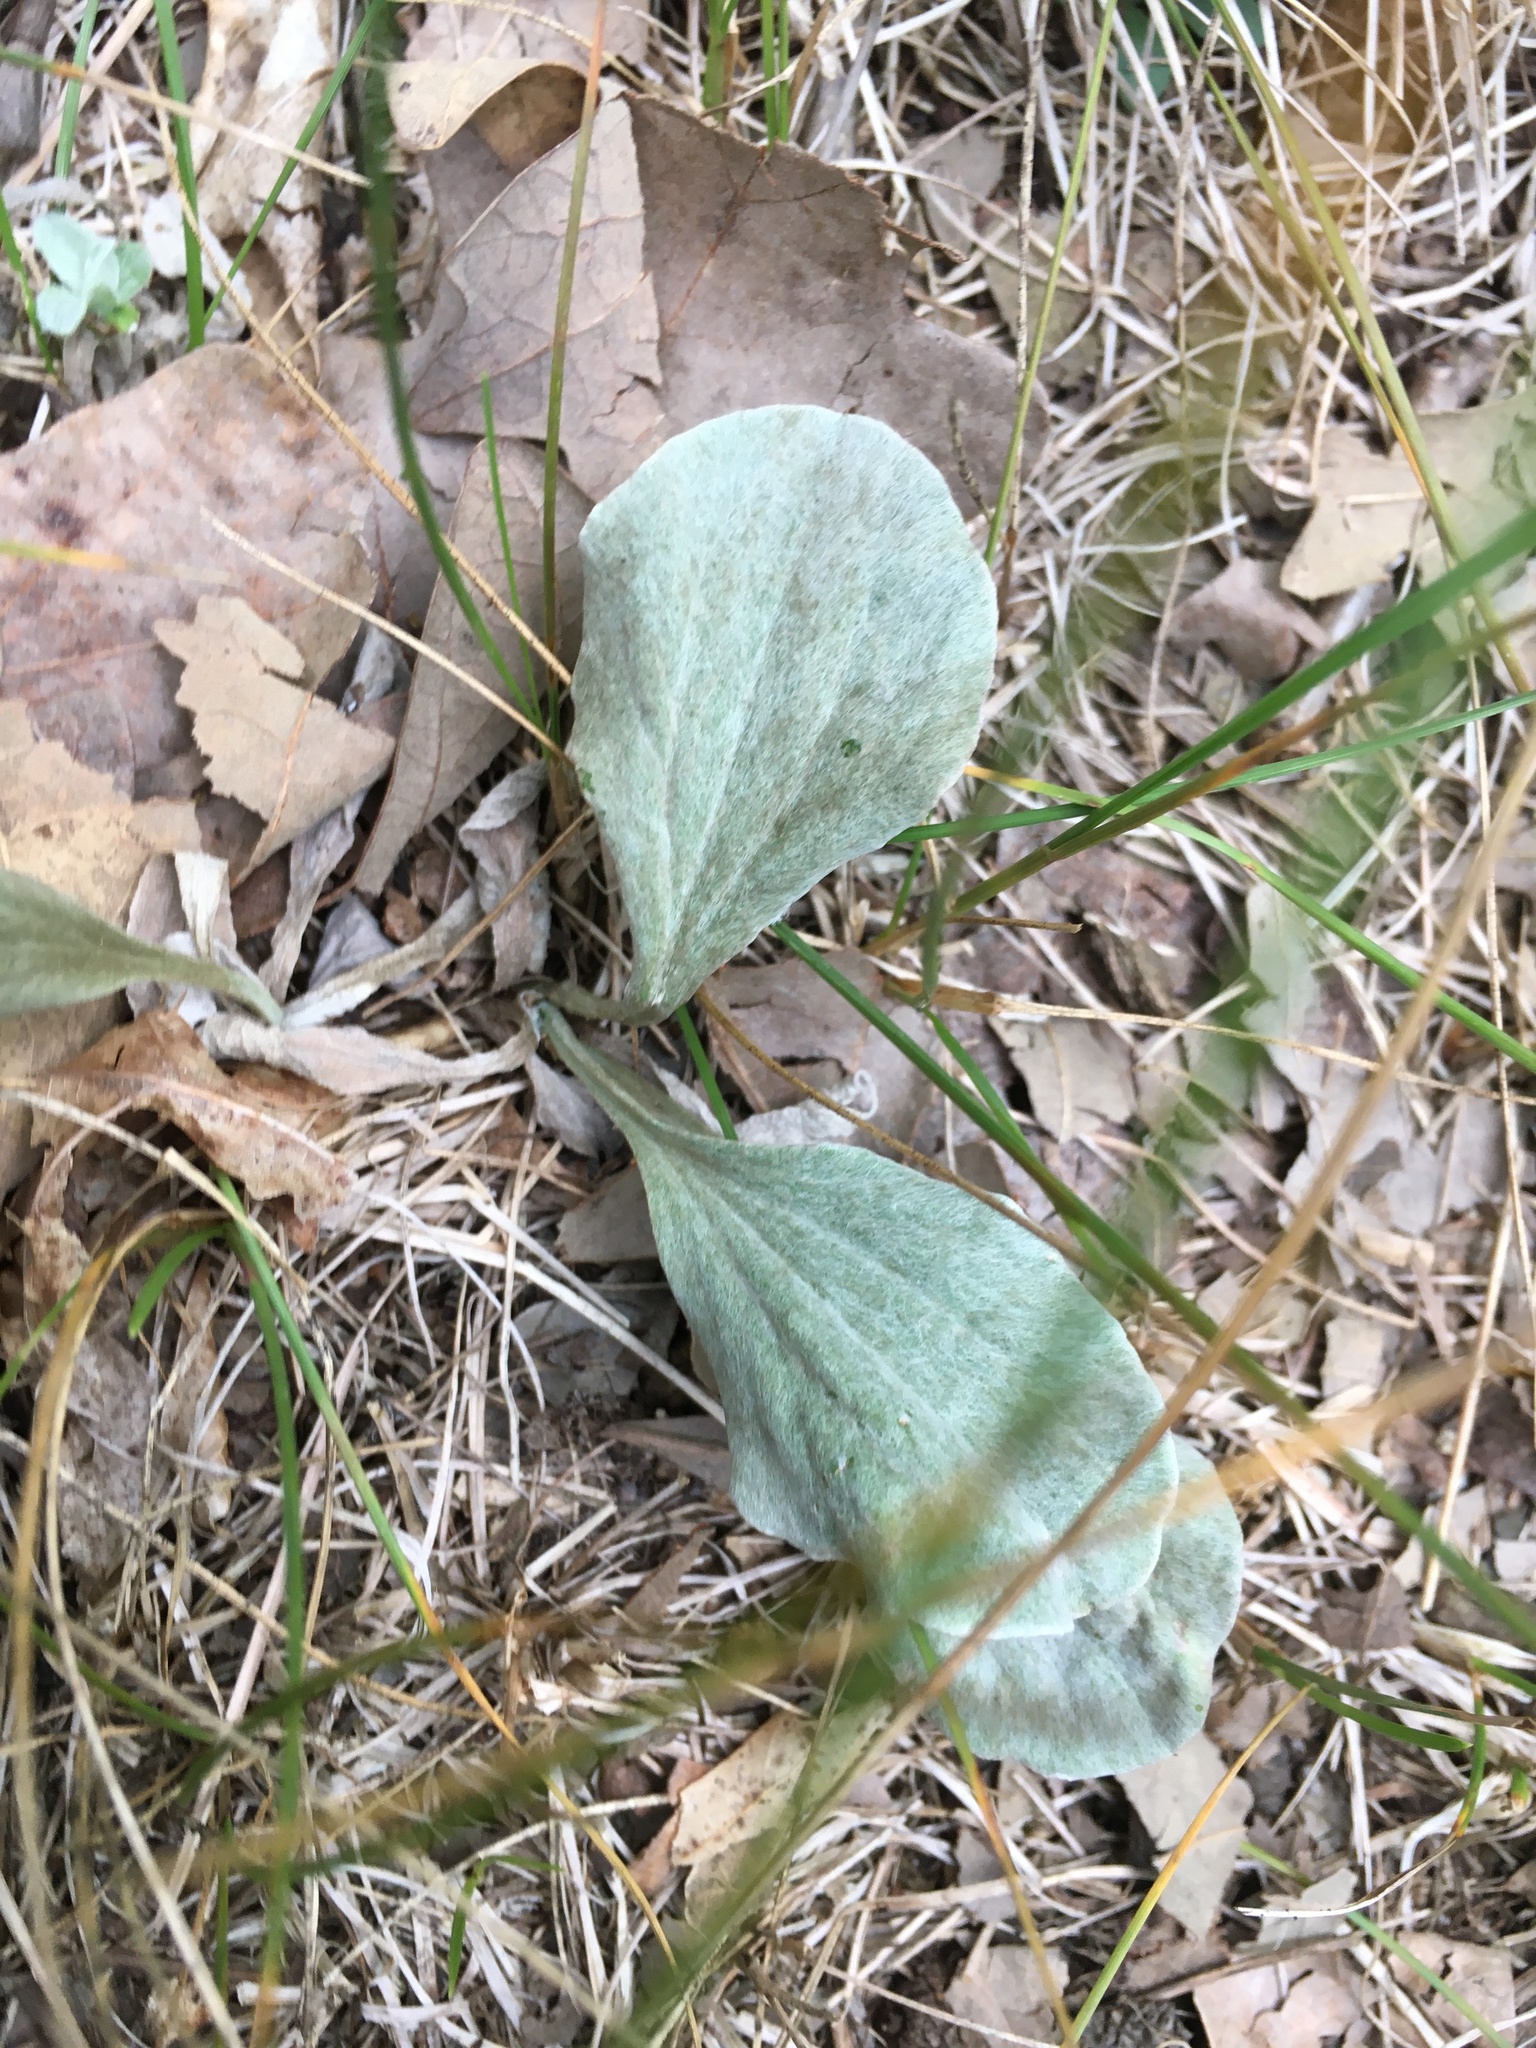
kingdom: Plantae
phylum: Tracheophyta
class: Magnoliopsida
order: Asterales
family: Asteraceae
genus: Antennaria
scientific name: Antennaria parlinii
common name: Parlin's pussytoes
